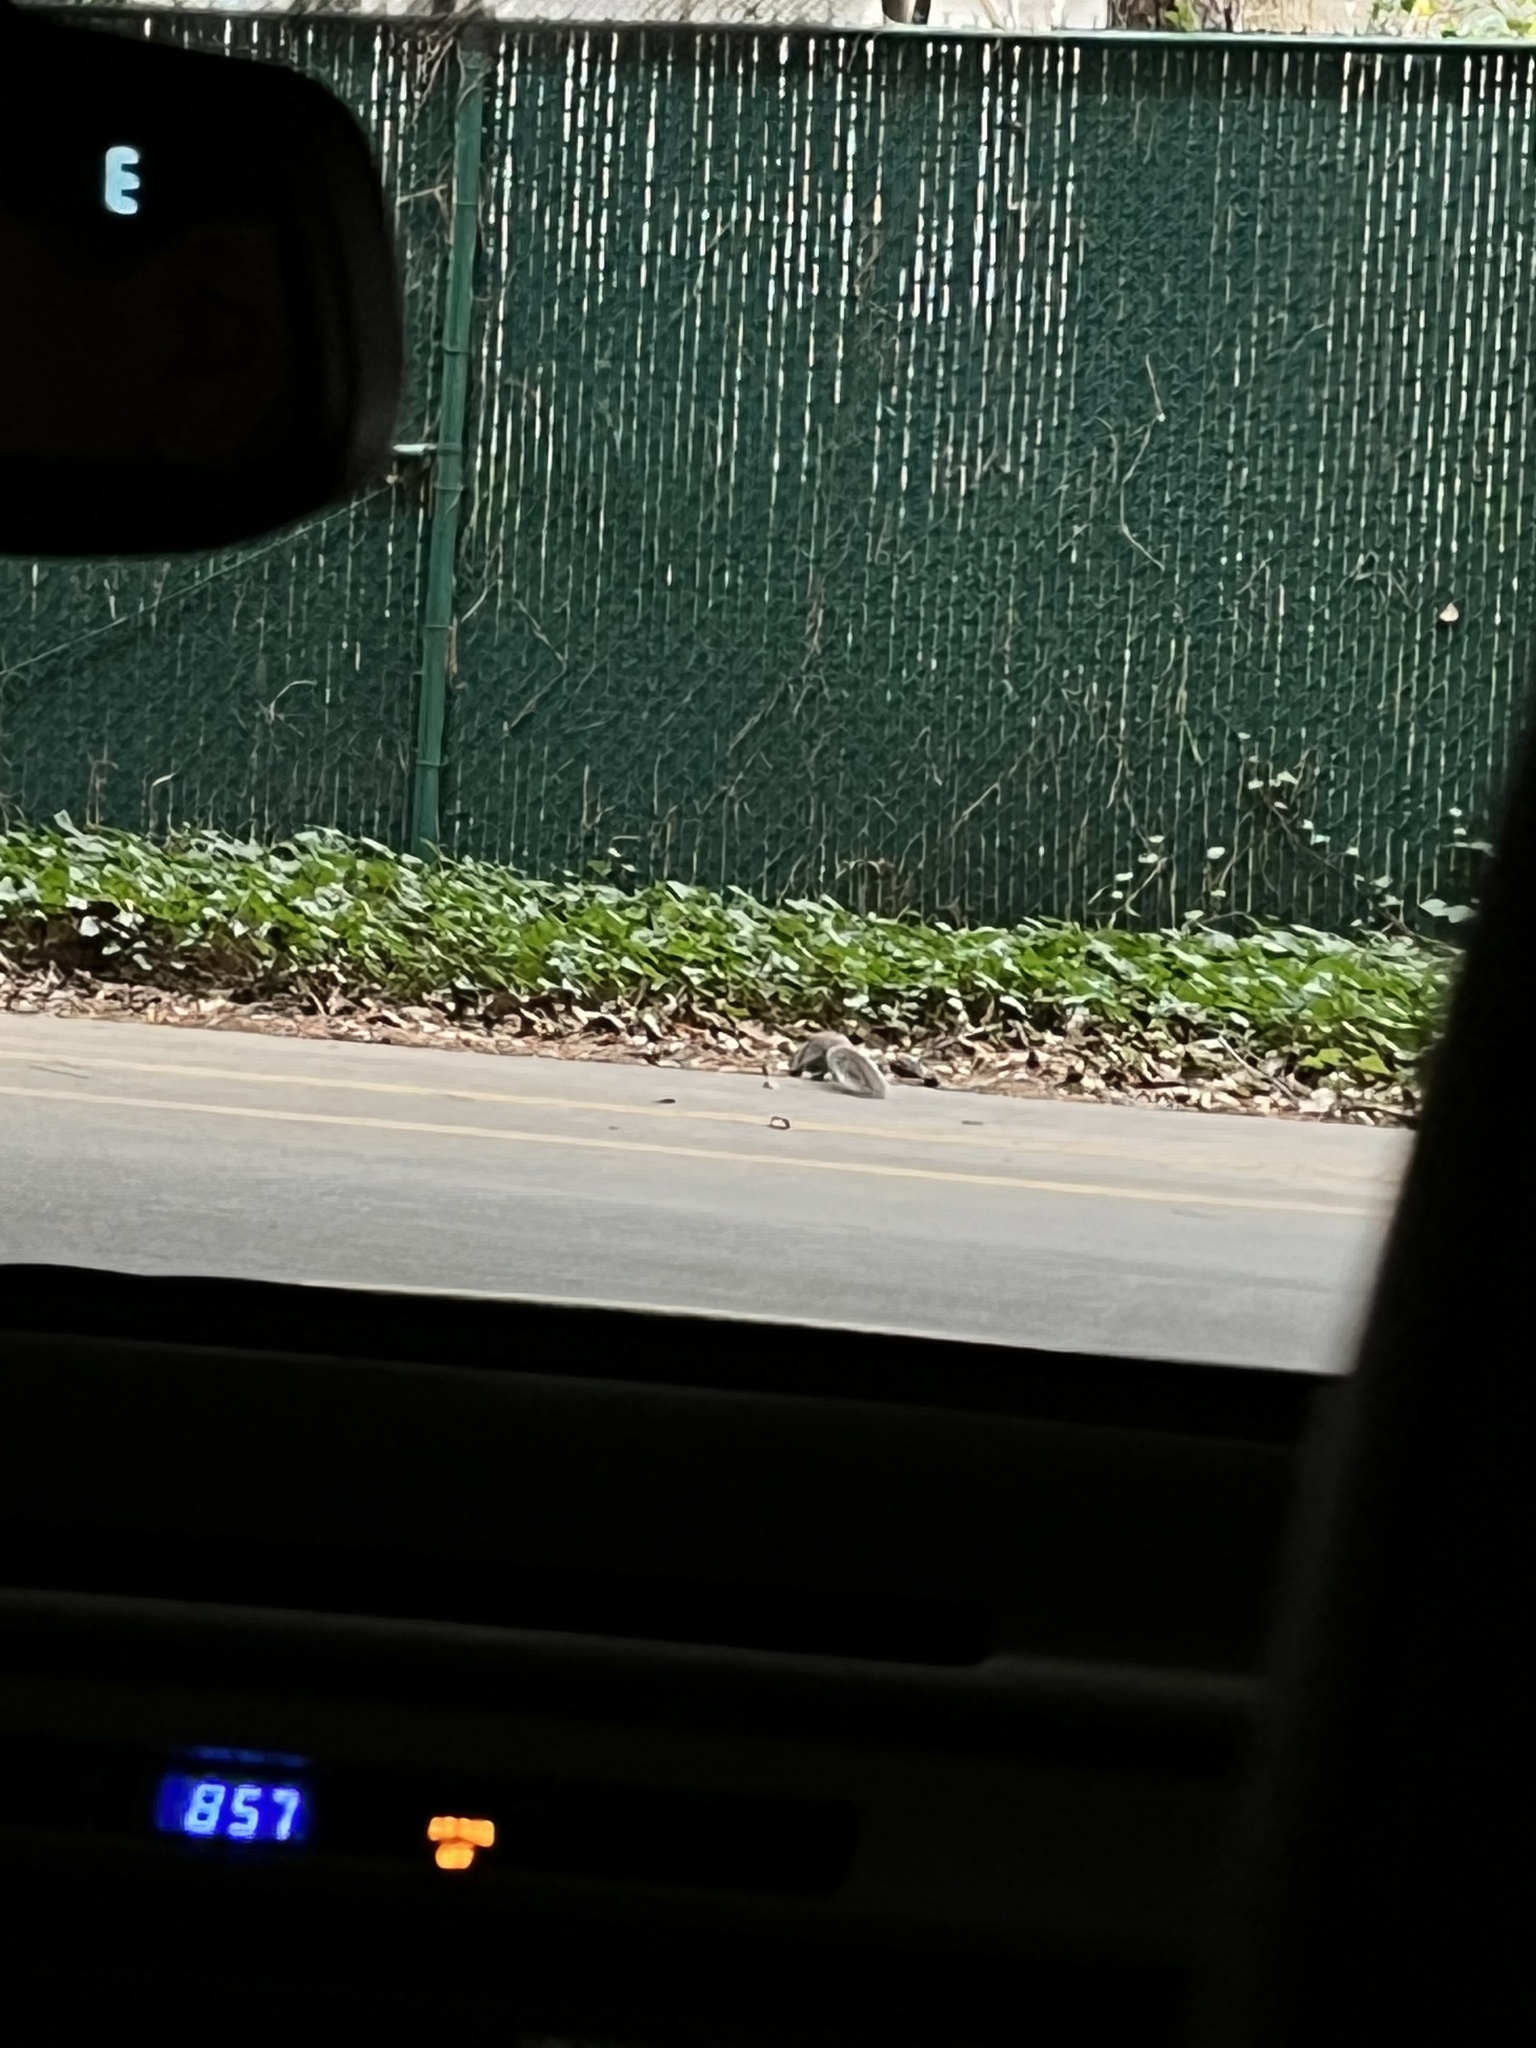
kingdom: Animalia
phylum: Chordata
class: Mammalia
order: Rodentia
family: Sciuridae
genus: Sciurus
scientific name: Sciurus carolinensis
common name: Eastern gray squirrel
